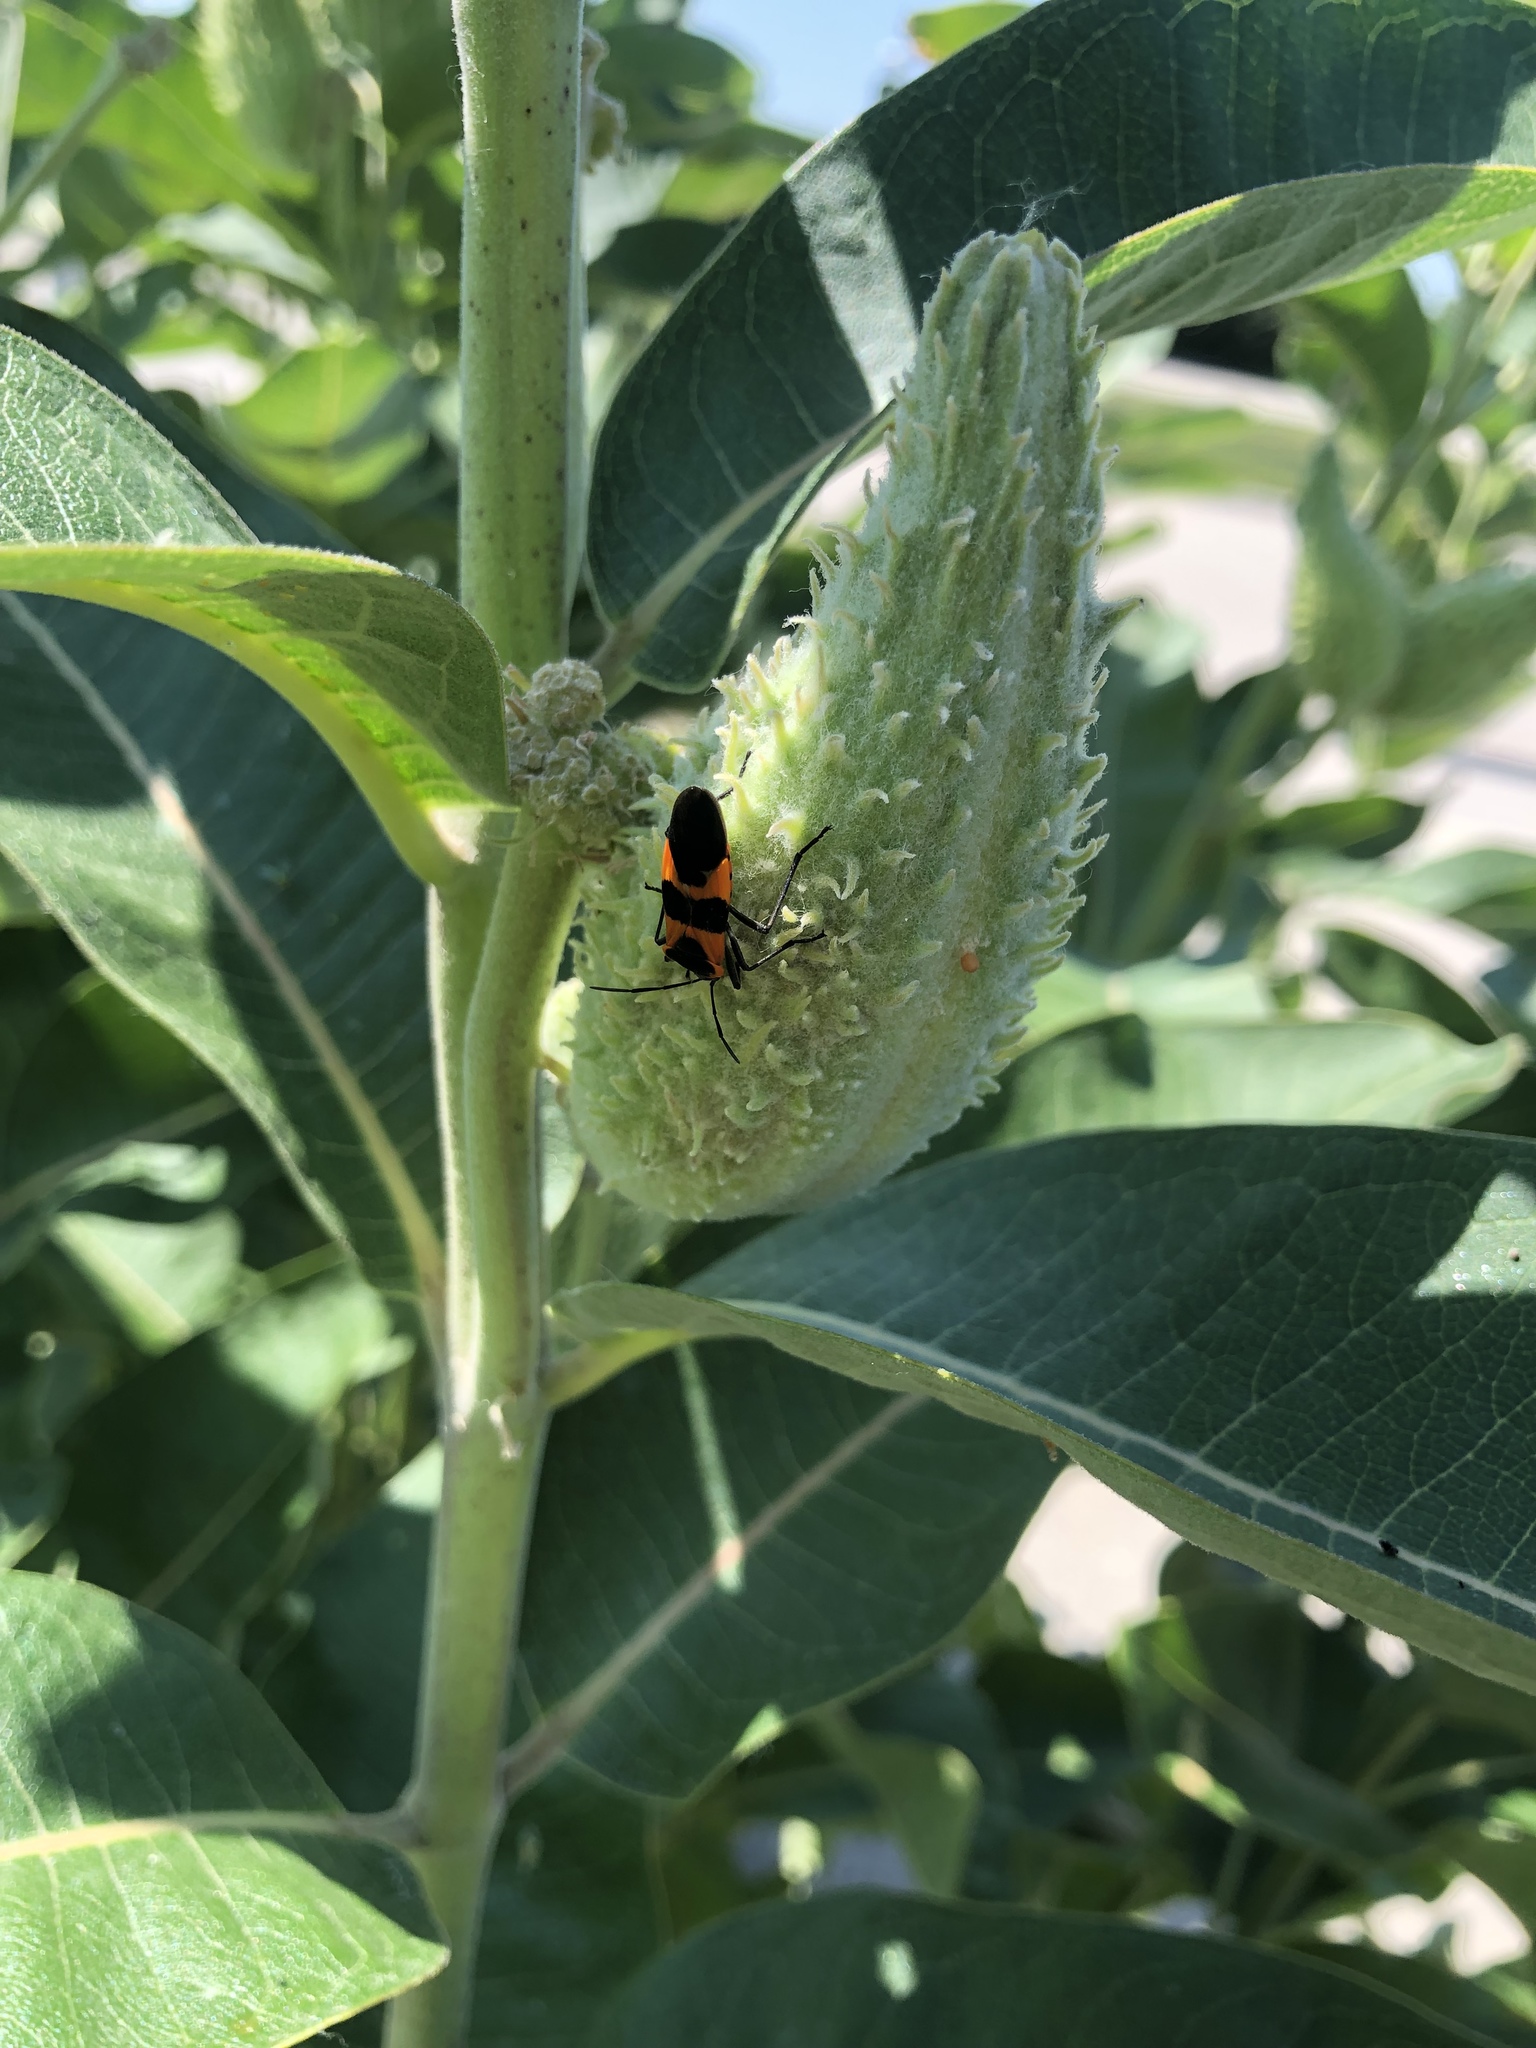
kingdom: Animalia
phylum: Arthropoda
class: Insecta
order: Hemiptera
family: Lygaeidae
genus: Oncopeltus
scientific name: Oncopeltus fasciatus
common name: Large milkweed bug
